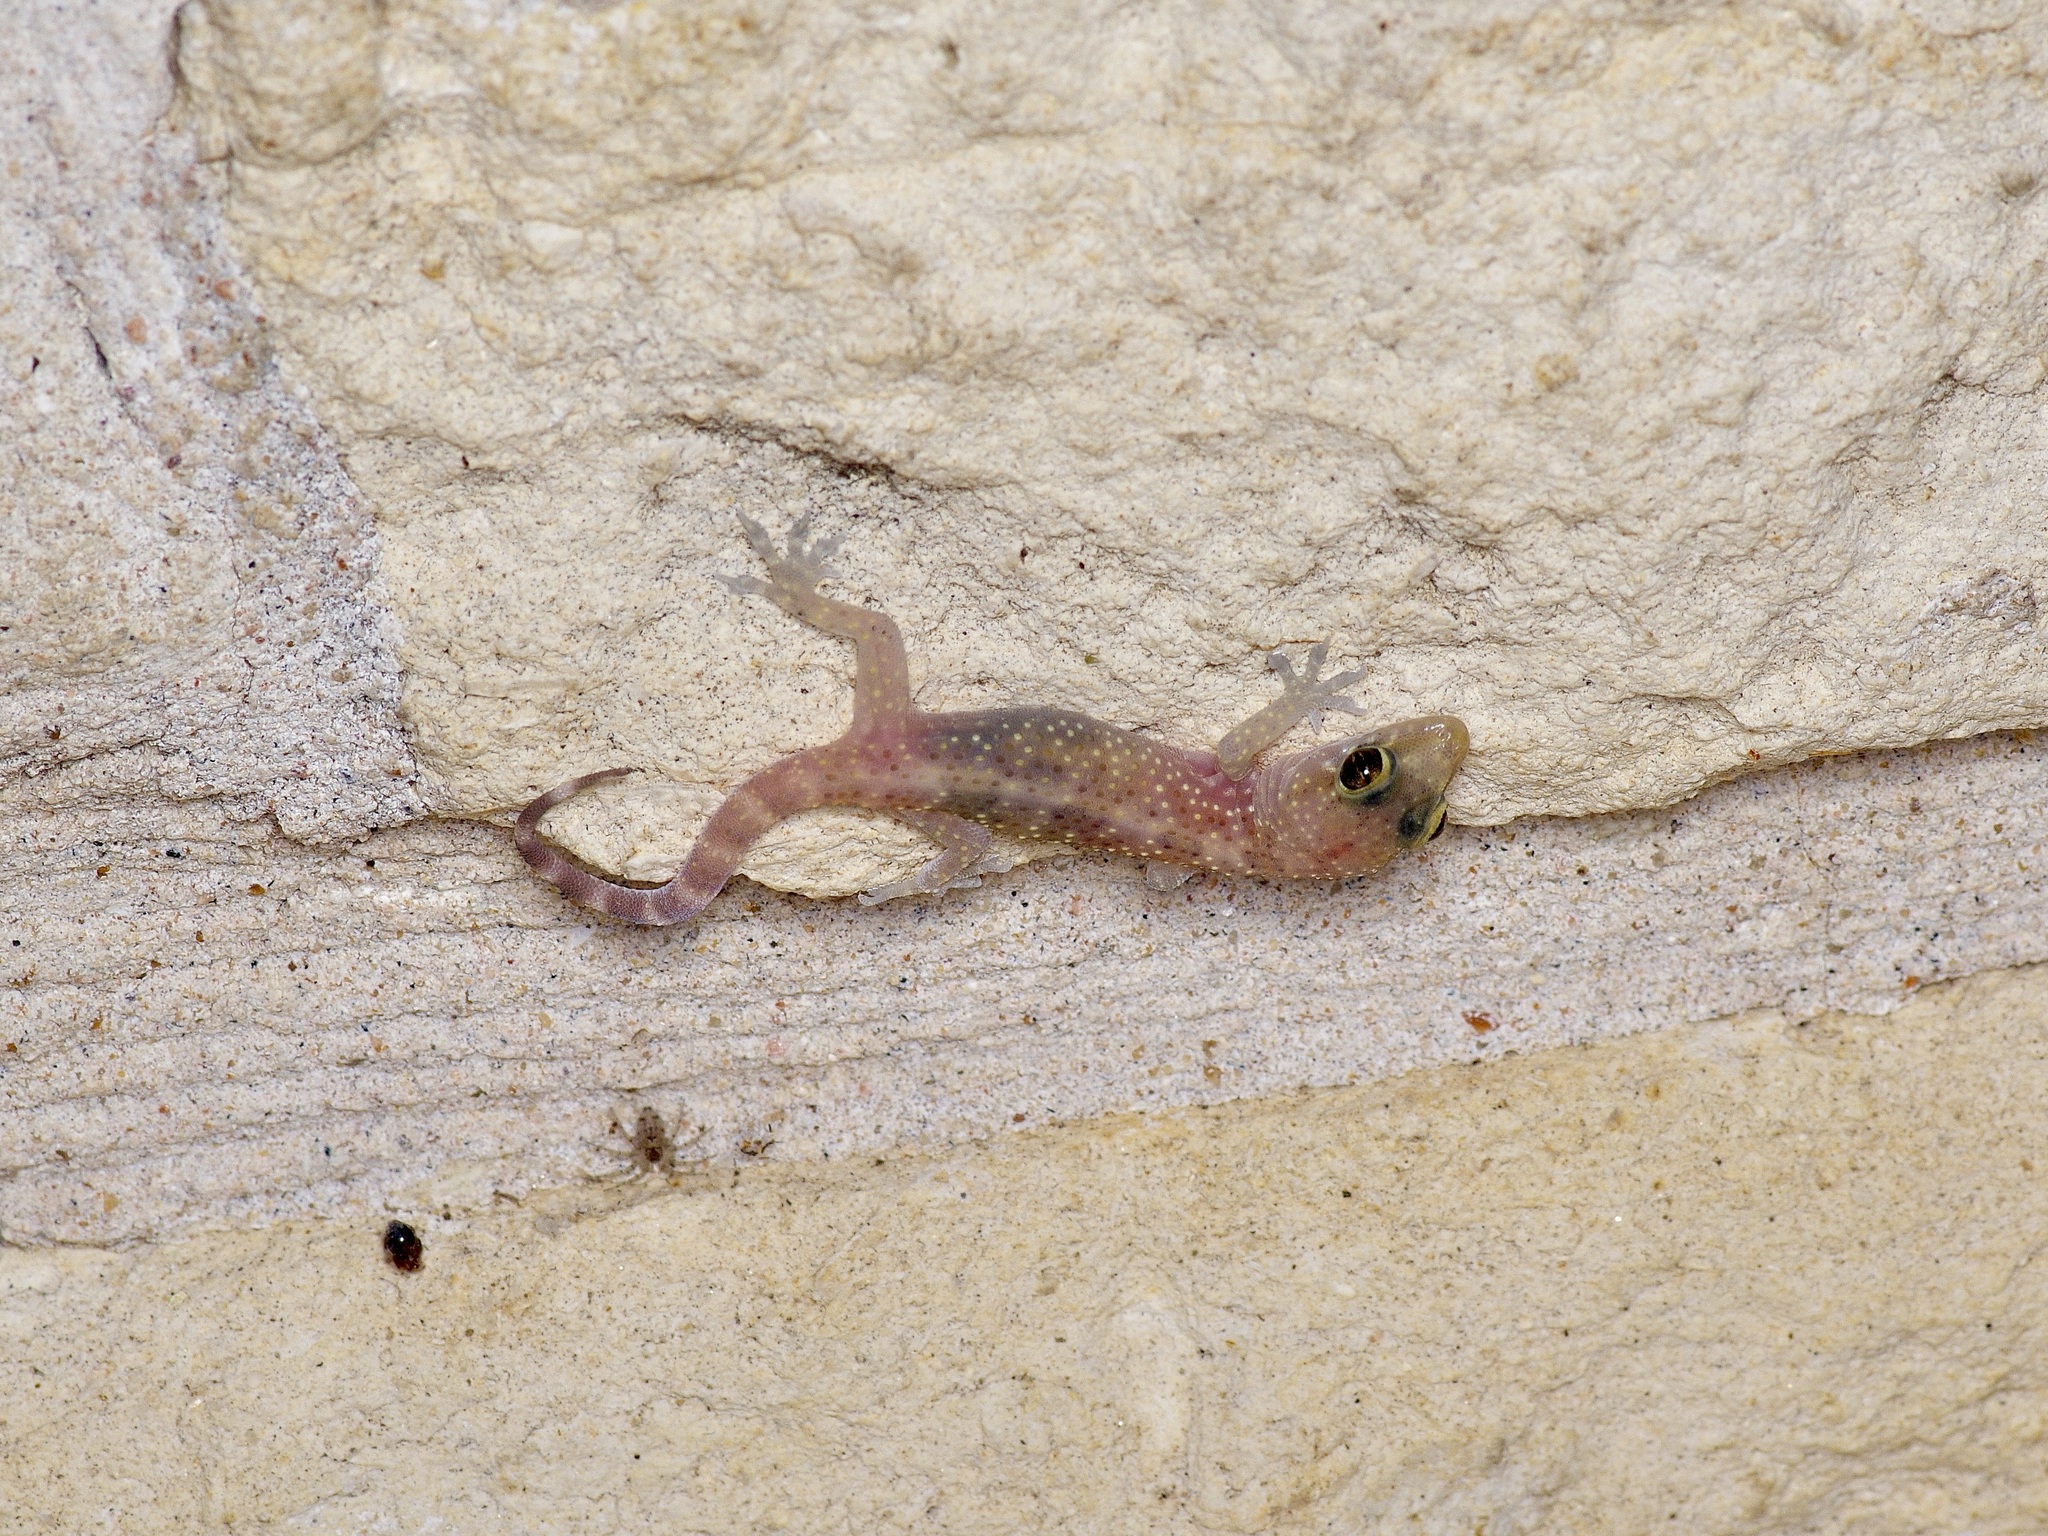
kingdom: Animalia
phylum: Chordata
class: Squamata
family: Gekkonidae
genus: Hemidactylus
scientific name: Hemidactylus turcicus
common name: Turkish gecko
